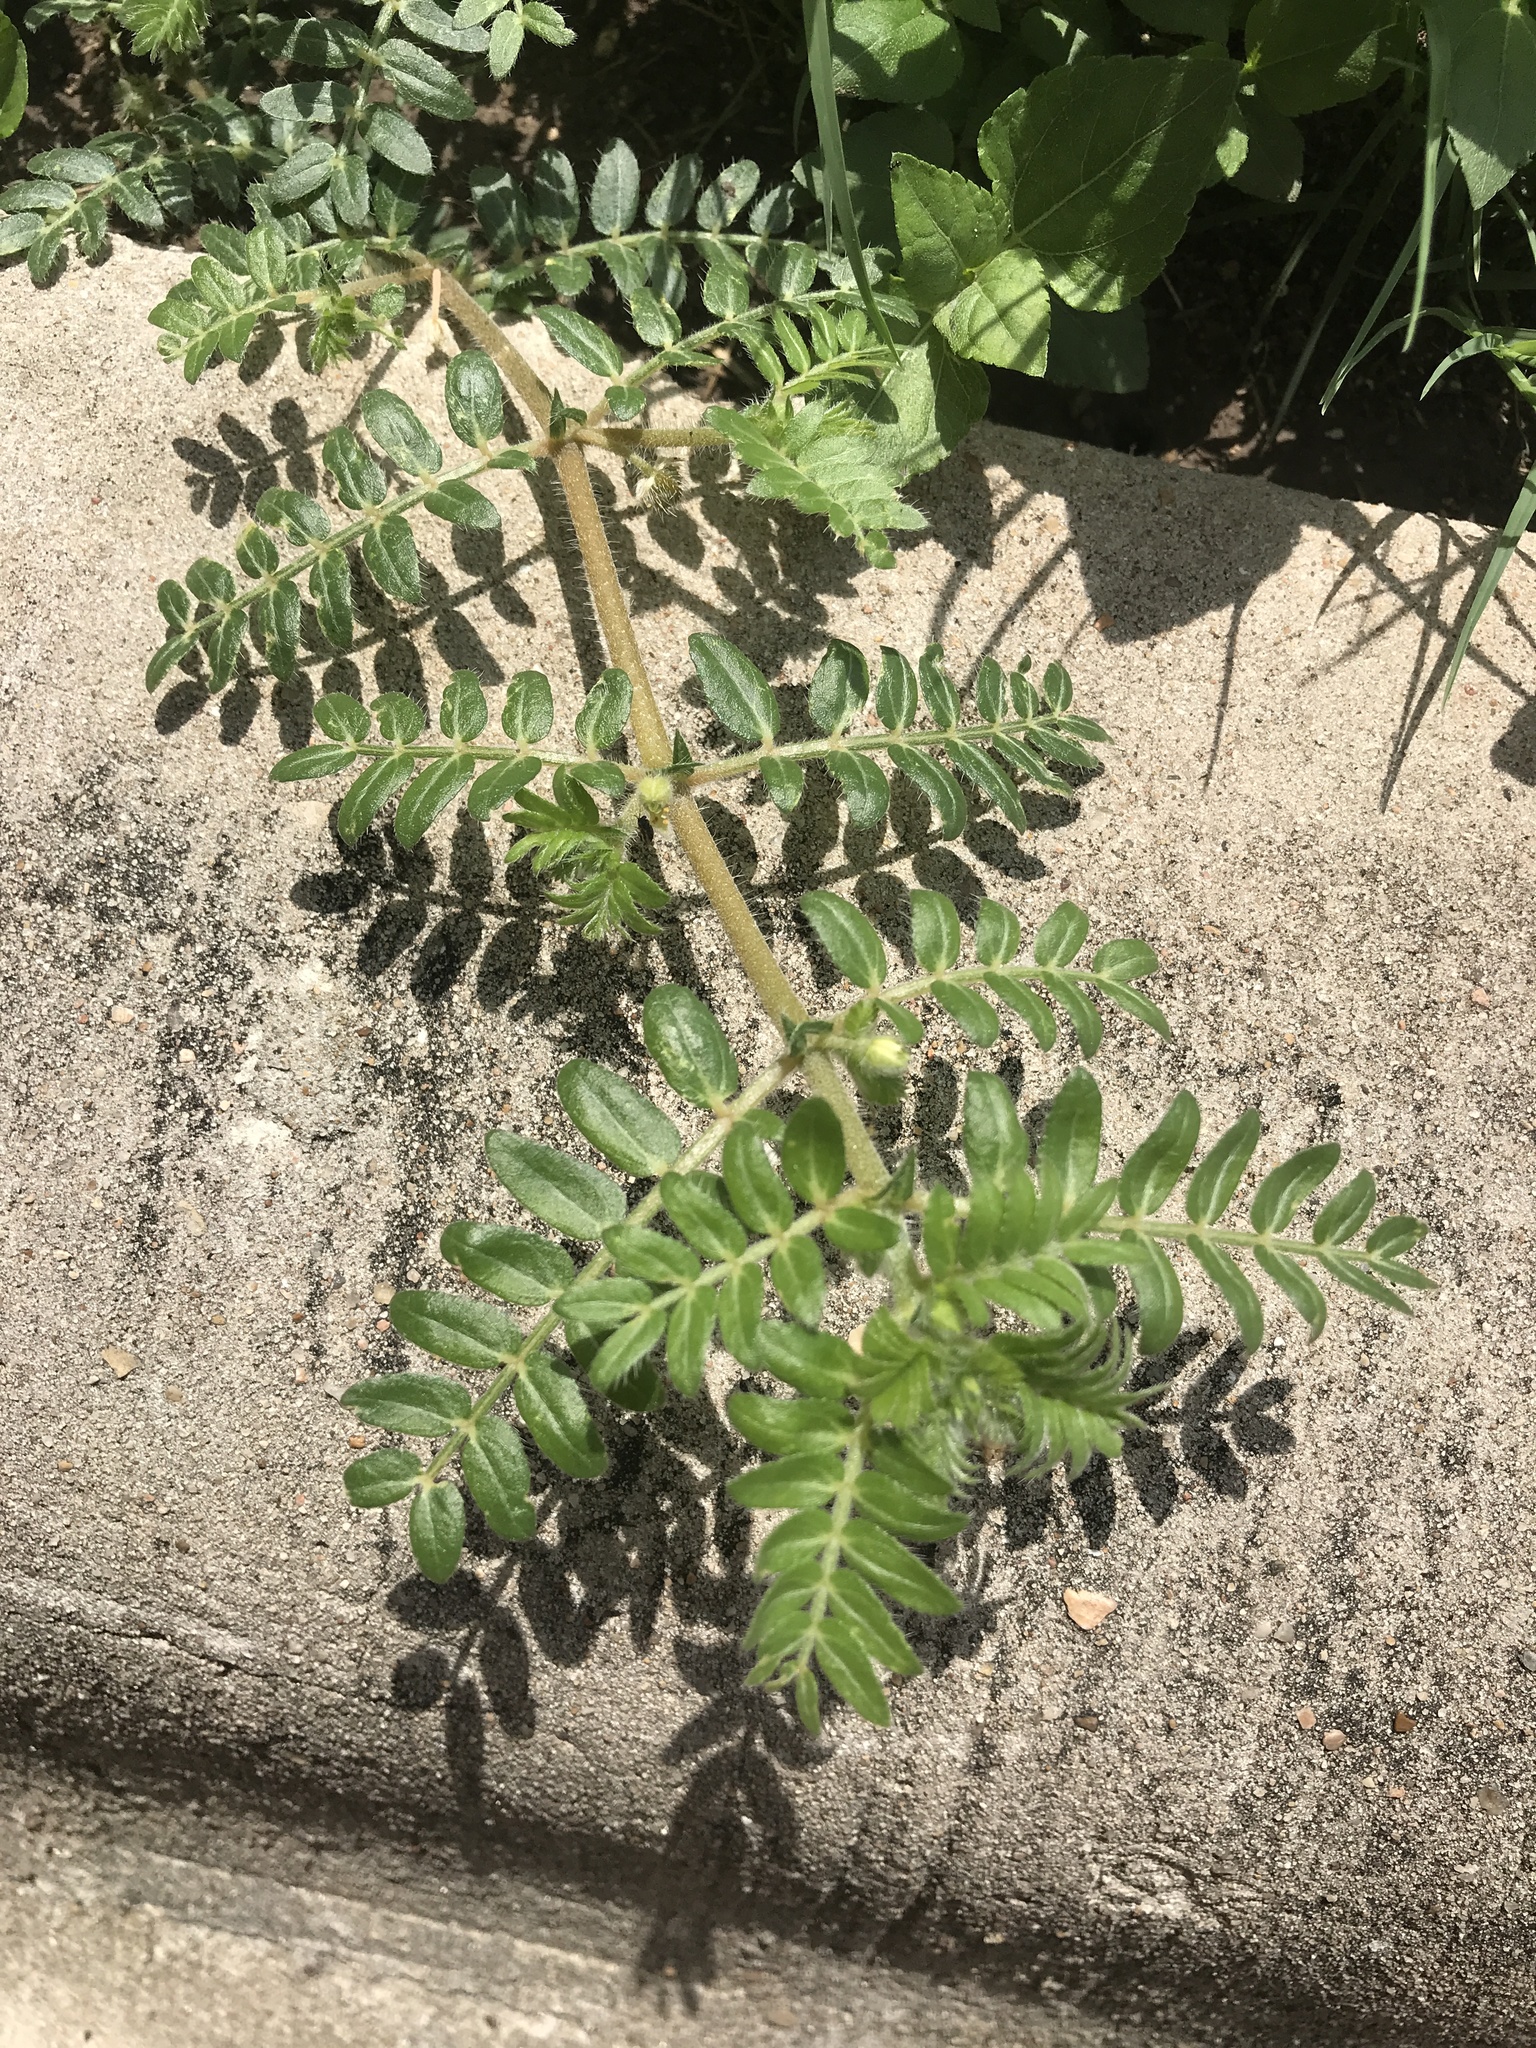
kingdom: Plantae
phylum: Tracheophyta
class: Magnoliopsida
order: Zygophyllales
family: Zygophyllaceae
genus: Tribulus
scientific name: Tribulus terrestris
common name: Puncturevine
